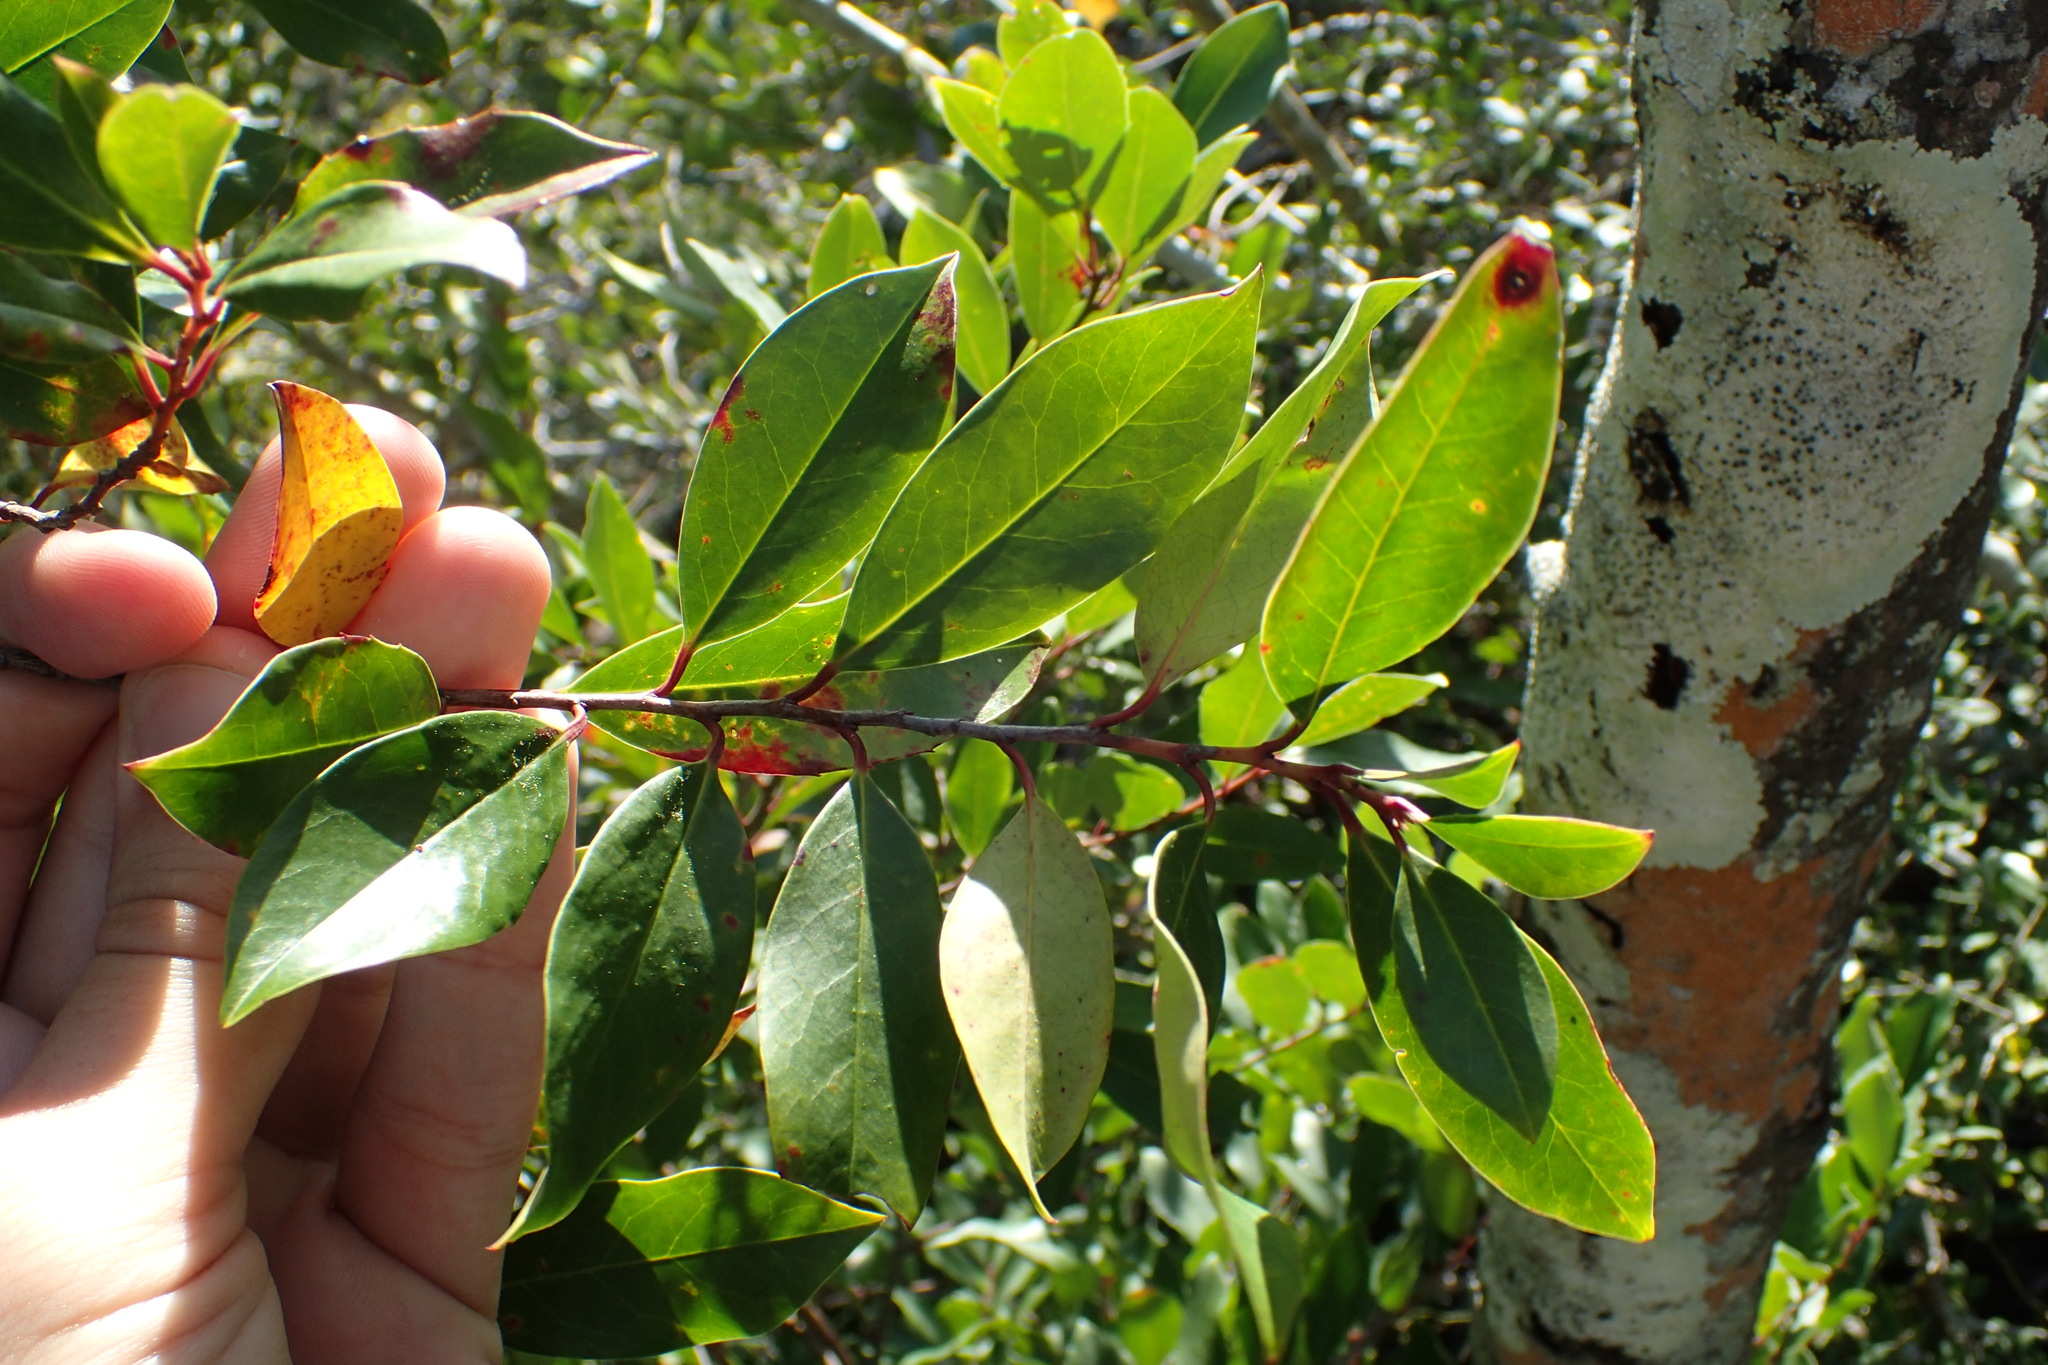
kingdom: Plantae
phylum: Tracheophyta
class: Magnoliopsida
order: Rosales
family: Rosaceae
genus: Prunus
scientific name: Prunus caroliniana
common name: Carolina laurel cherry
